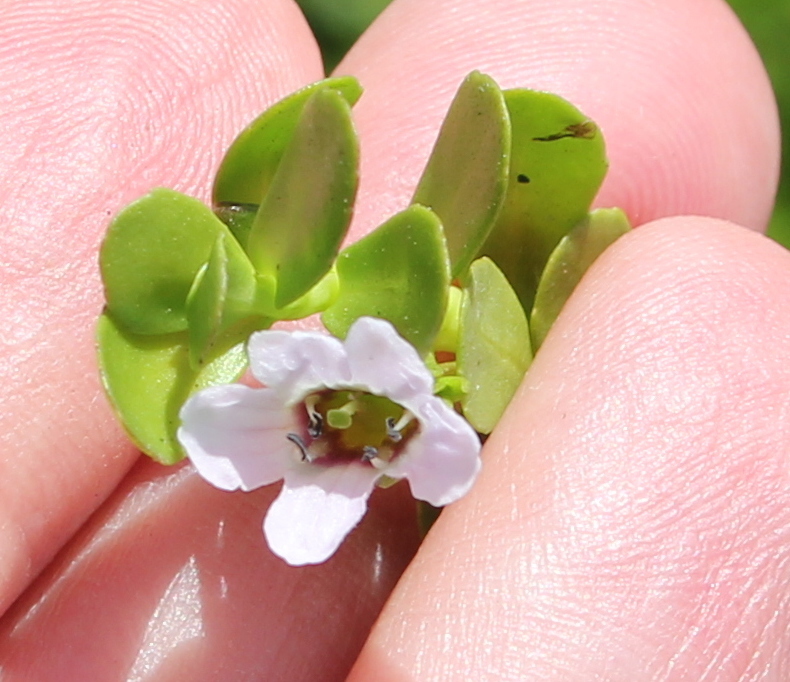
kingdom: Plantae
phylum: Tracheophyta
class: Magnoliopsida
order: Lamiales
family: Plantaginaceae
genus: Bacopa
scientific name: Bacopa monnieri
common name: Indian-pennywort
